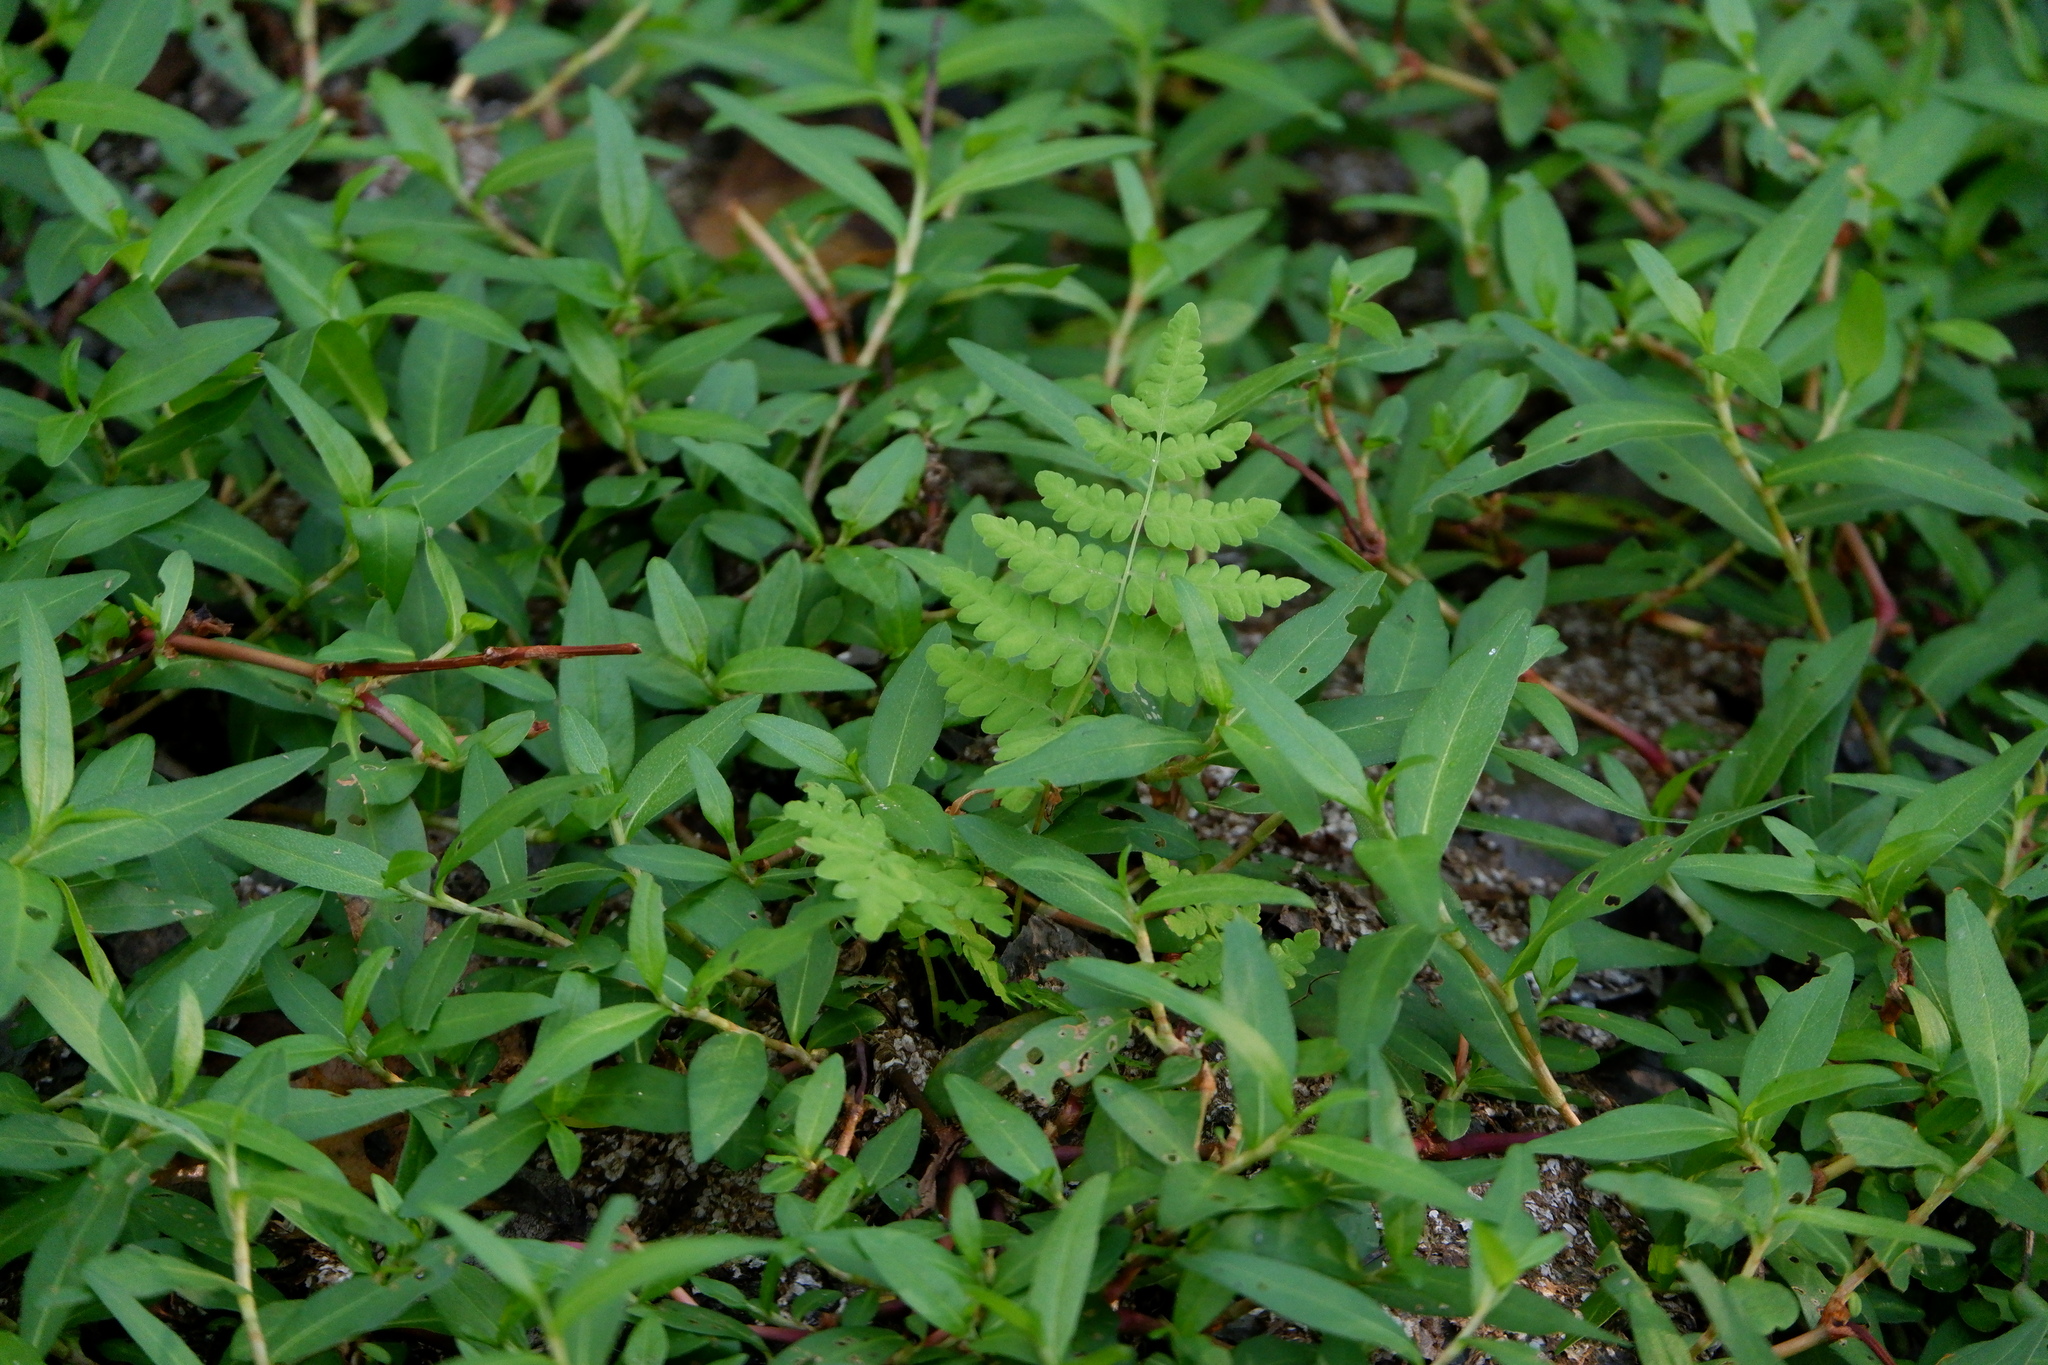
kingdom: Plantae
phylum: Tracheophyta
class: Polypodiopsida
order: Polypodiales
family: Thelypteridaceae
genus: Thelypteris
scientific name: Thelypteris palustris
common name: Marsh fern
